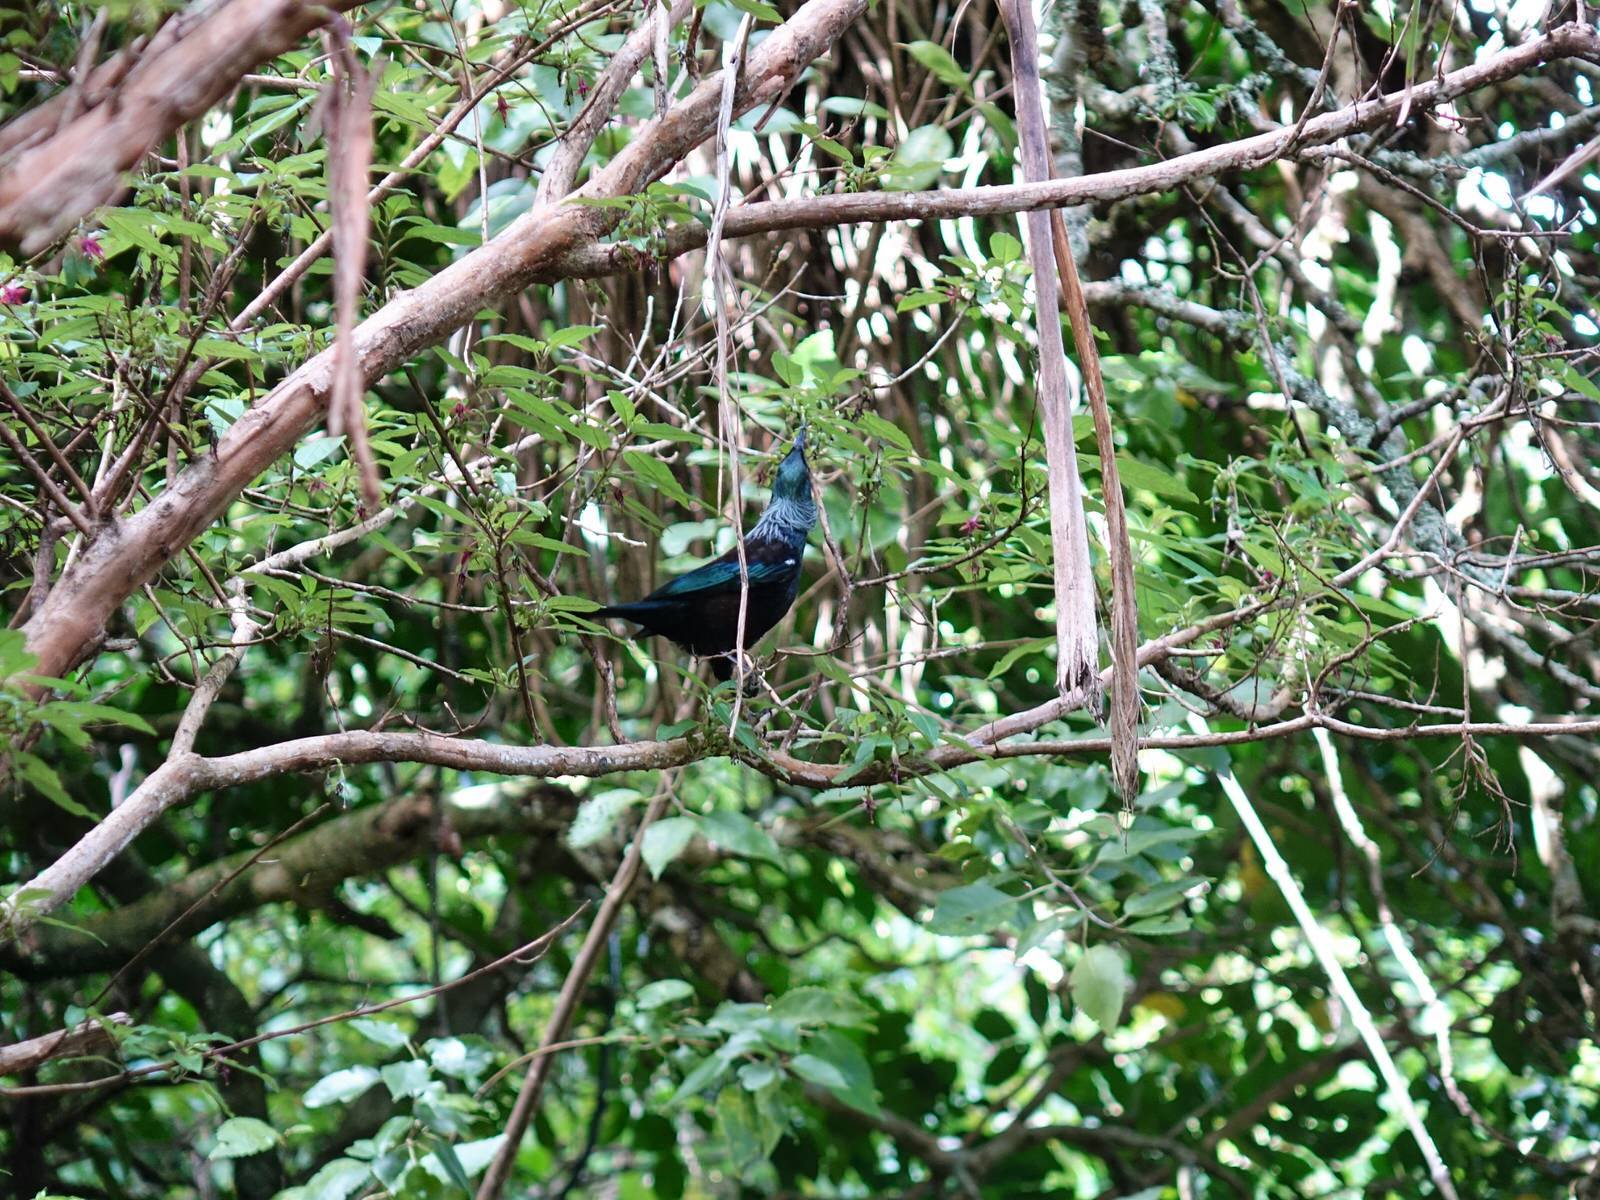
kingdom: Animalia
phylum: Chordata
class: Aves
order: Passeriformes
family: Meliphagidae
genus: Prosthemadera
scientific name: Prosthemadera novaeseelandiae
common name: Tui
